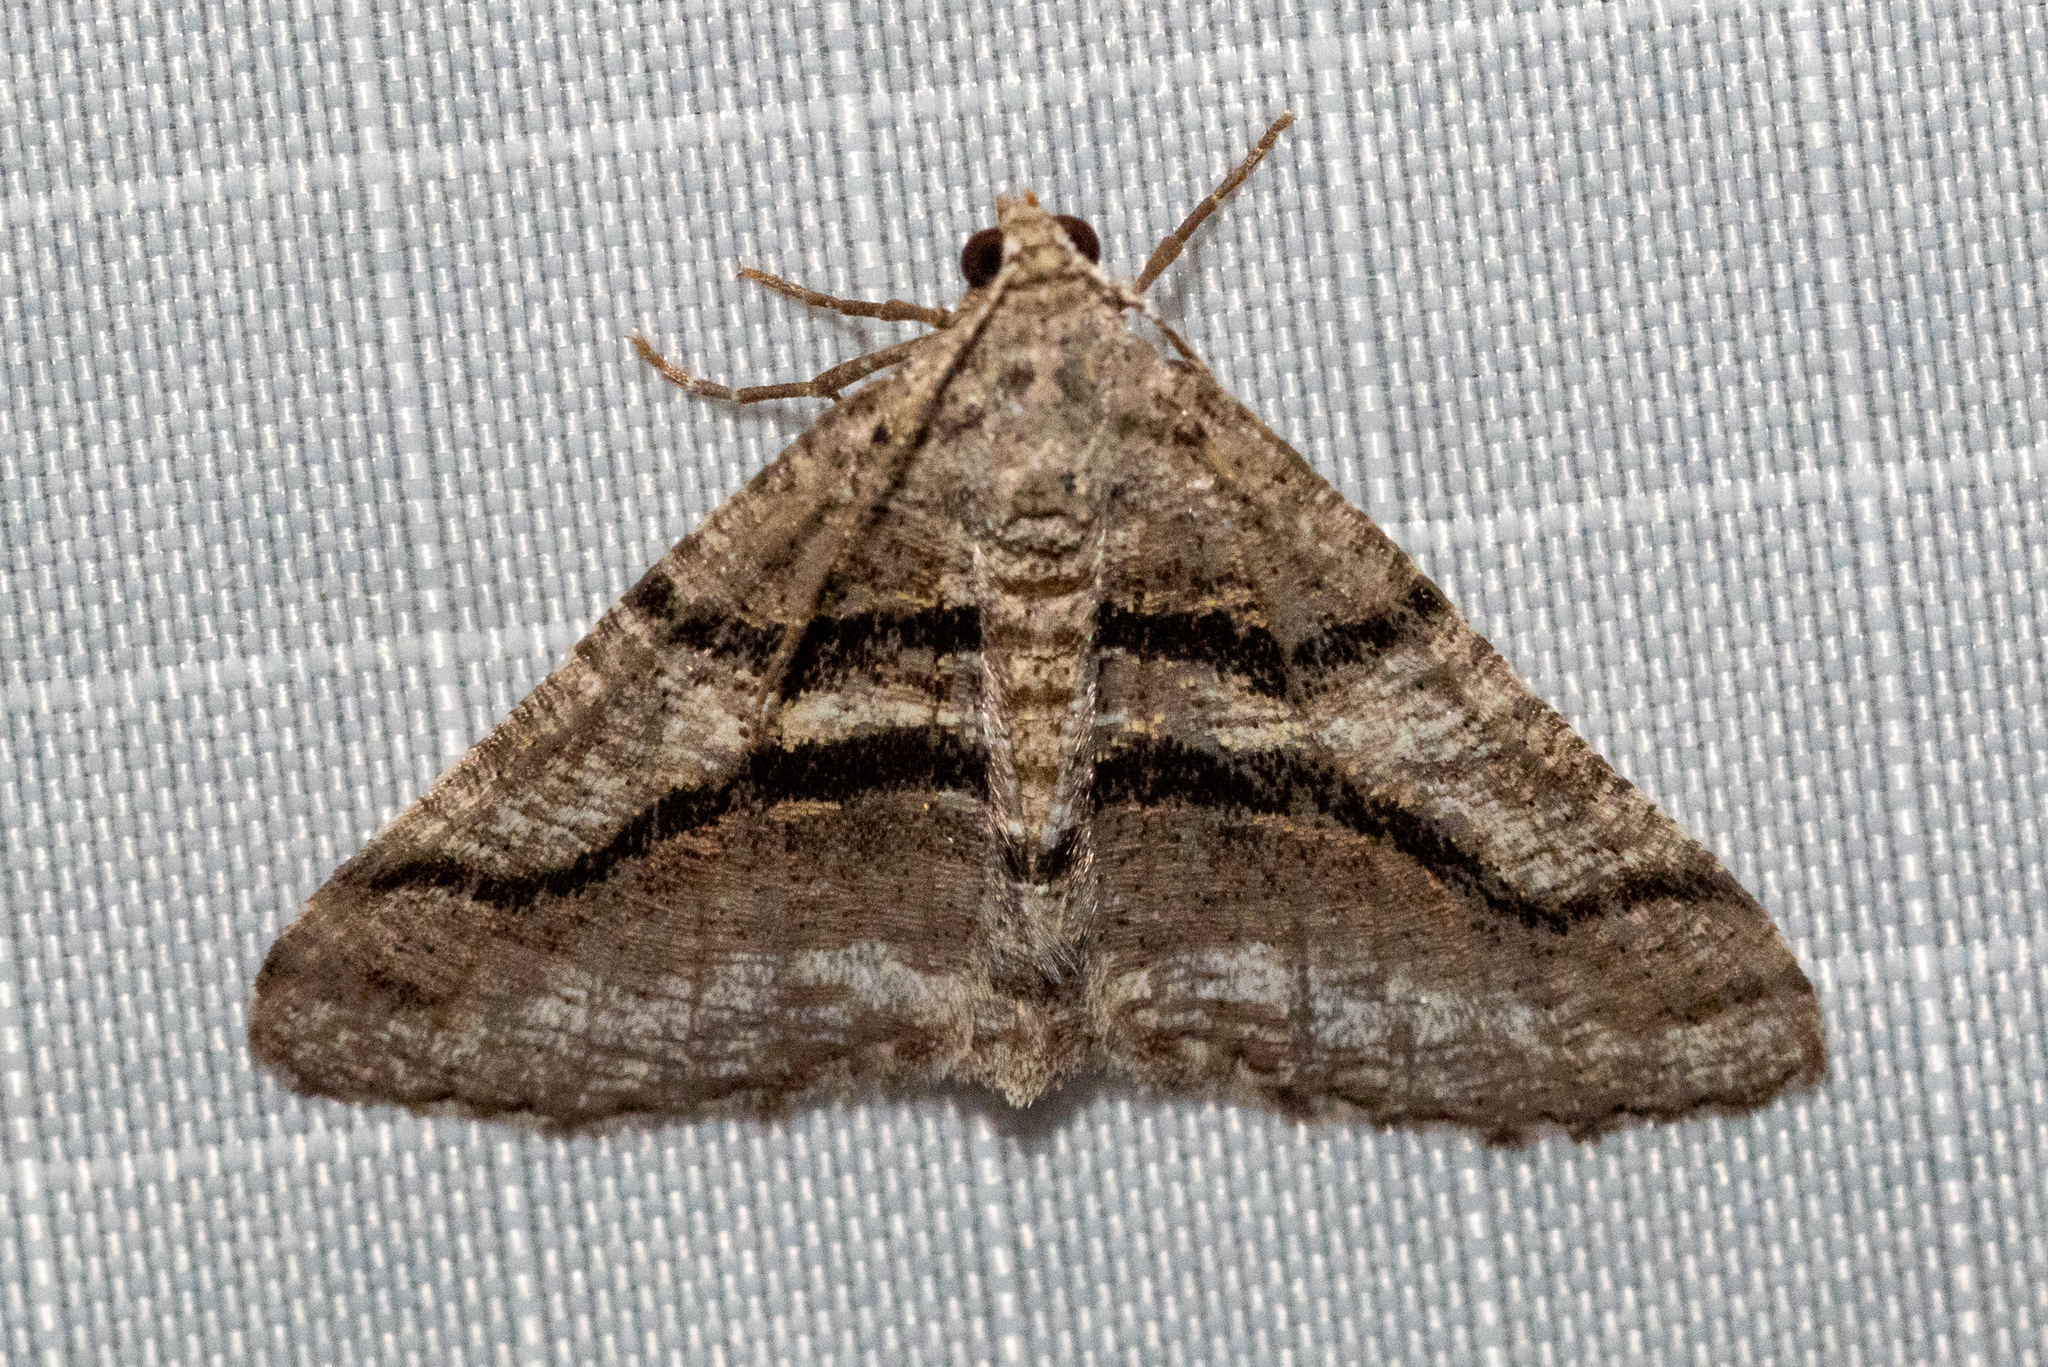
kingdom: Animalia
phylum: Arthropoda
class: Insecta
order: Lepidoptera
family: Geometridae
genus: Digrammia
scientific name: Digrammia continuata
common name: Curve-lined angle
